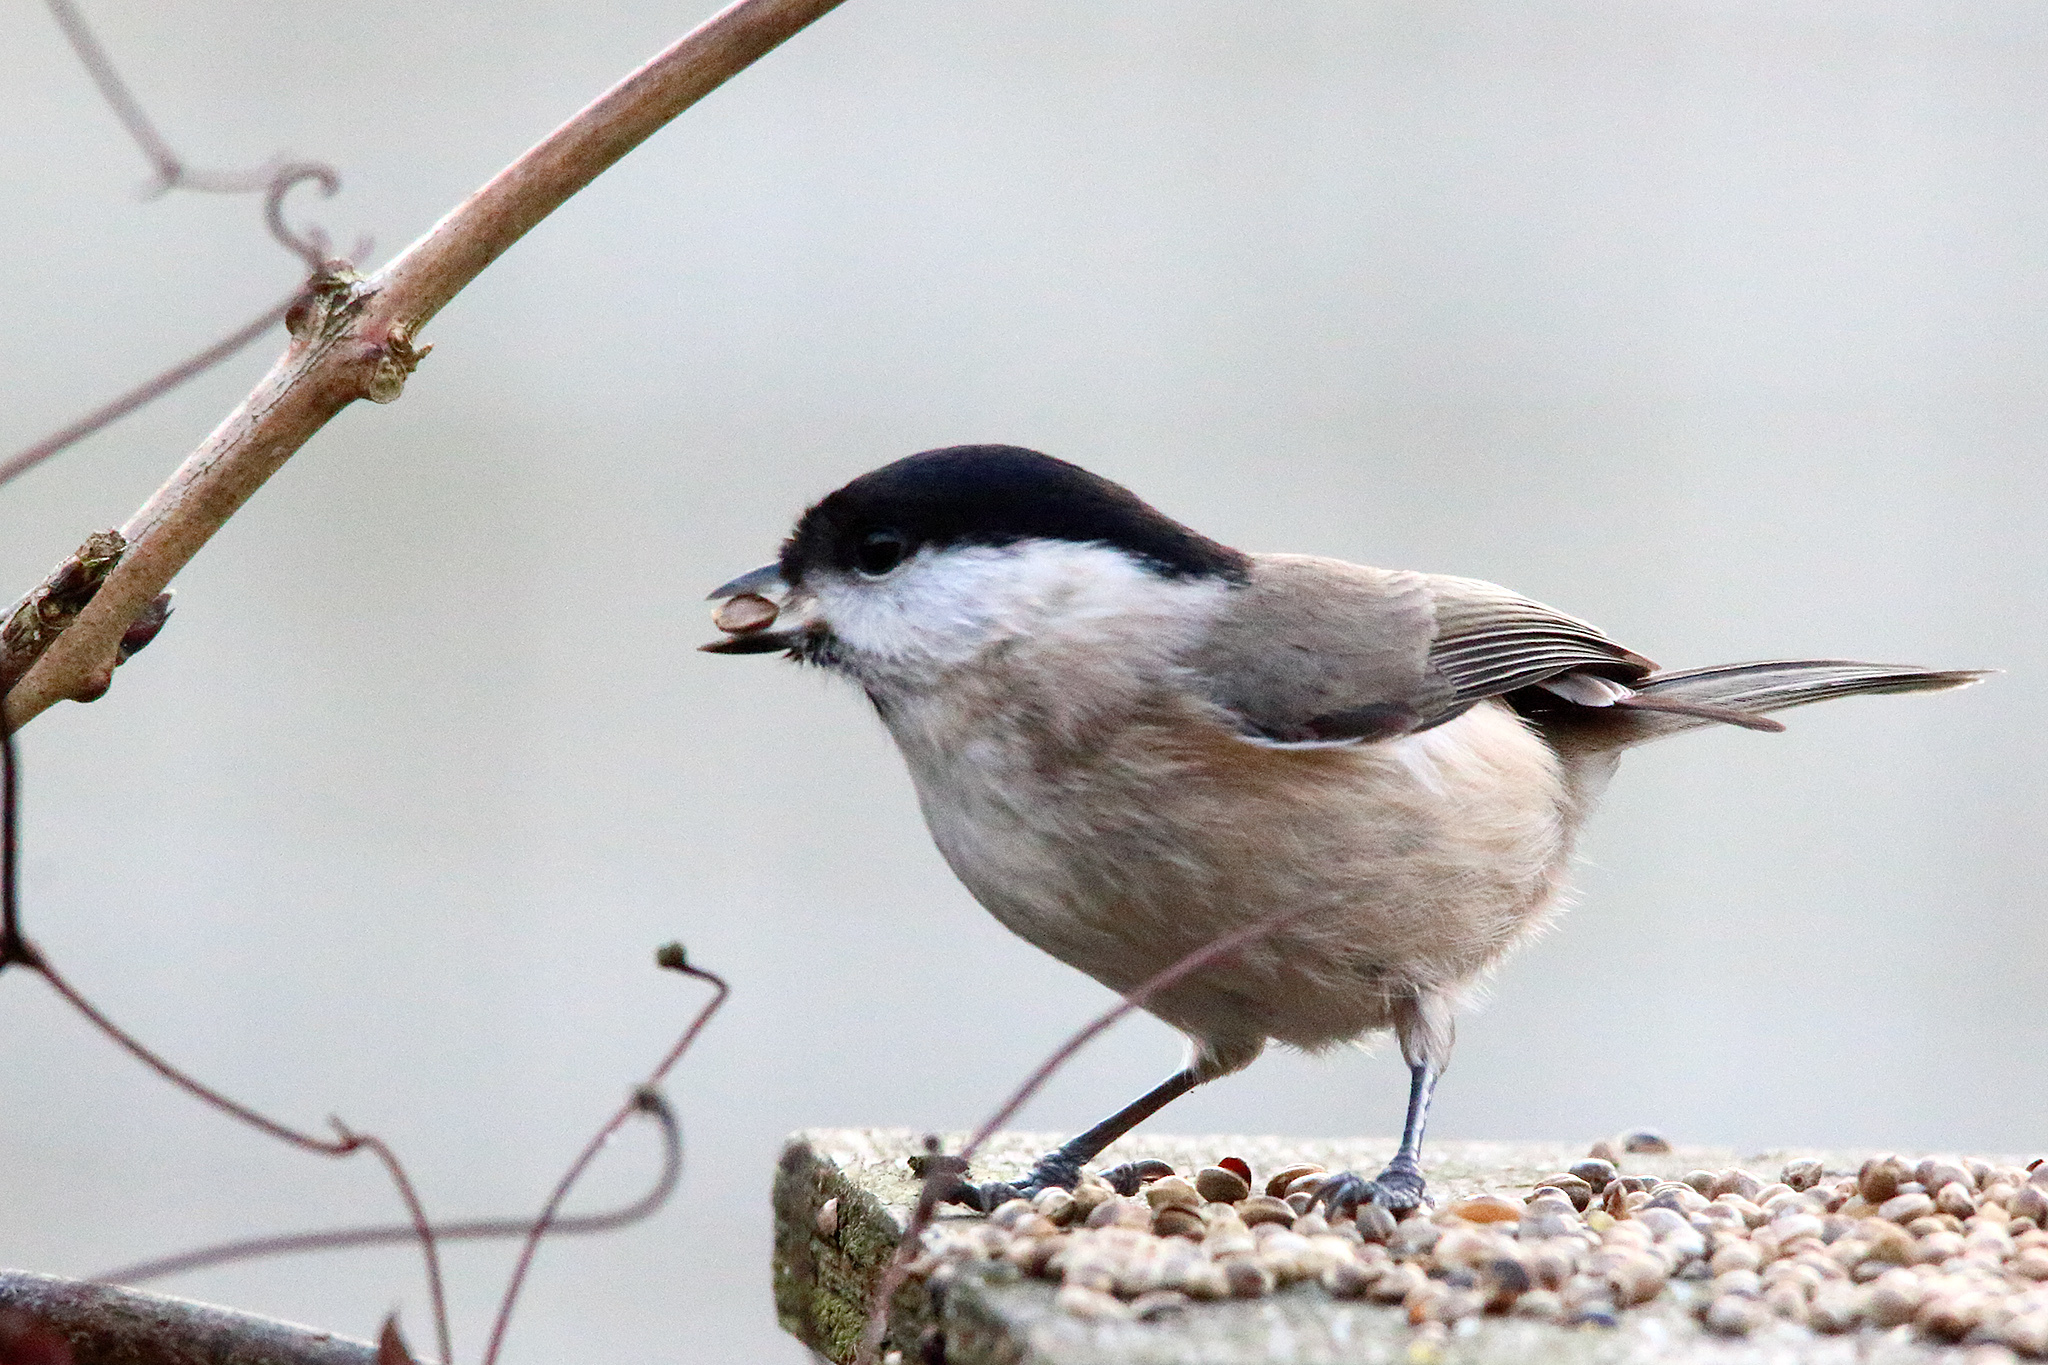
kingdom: Animalia
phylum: Chordata
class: Aves
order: Passeriformes
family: Paridae
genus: Poecile
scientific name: Poecile palustris
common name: Marsh tit
